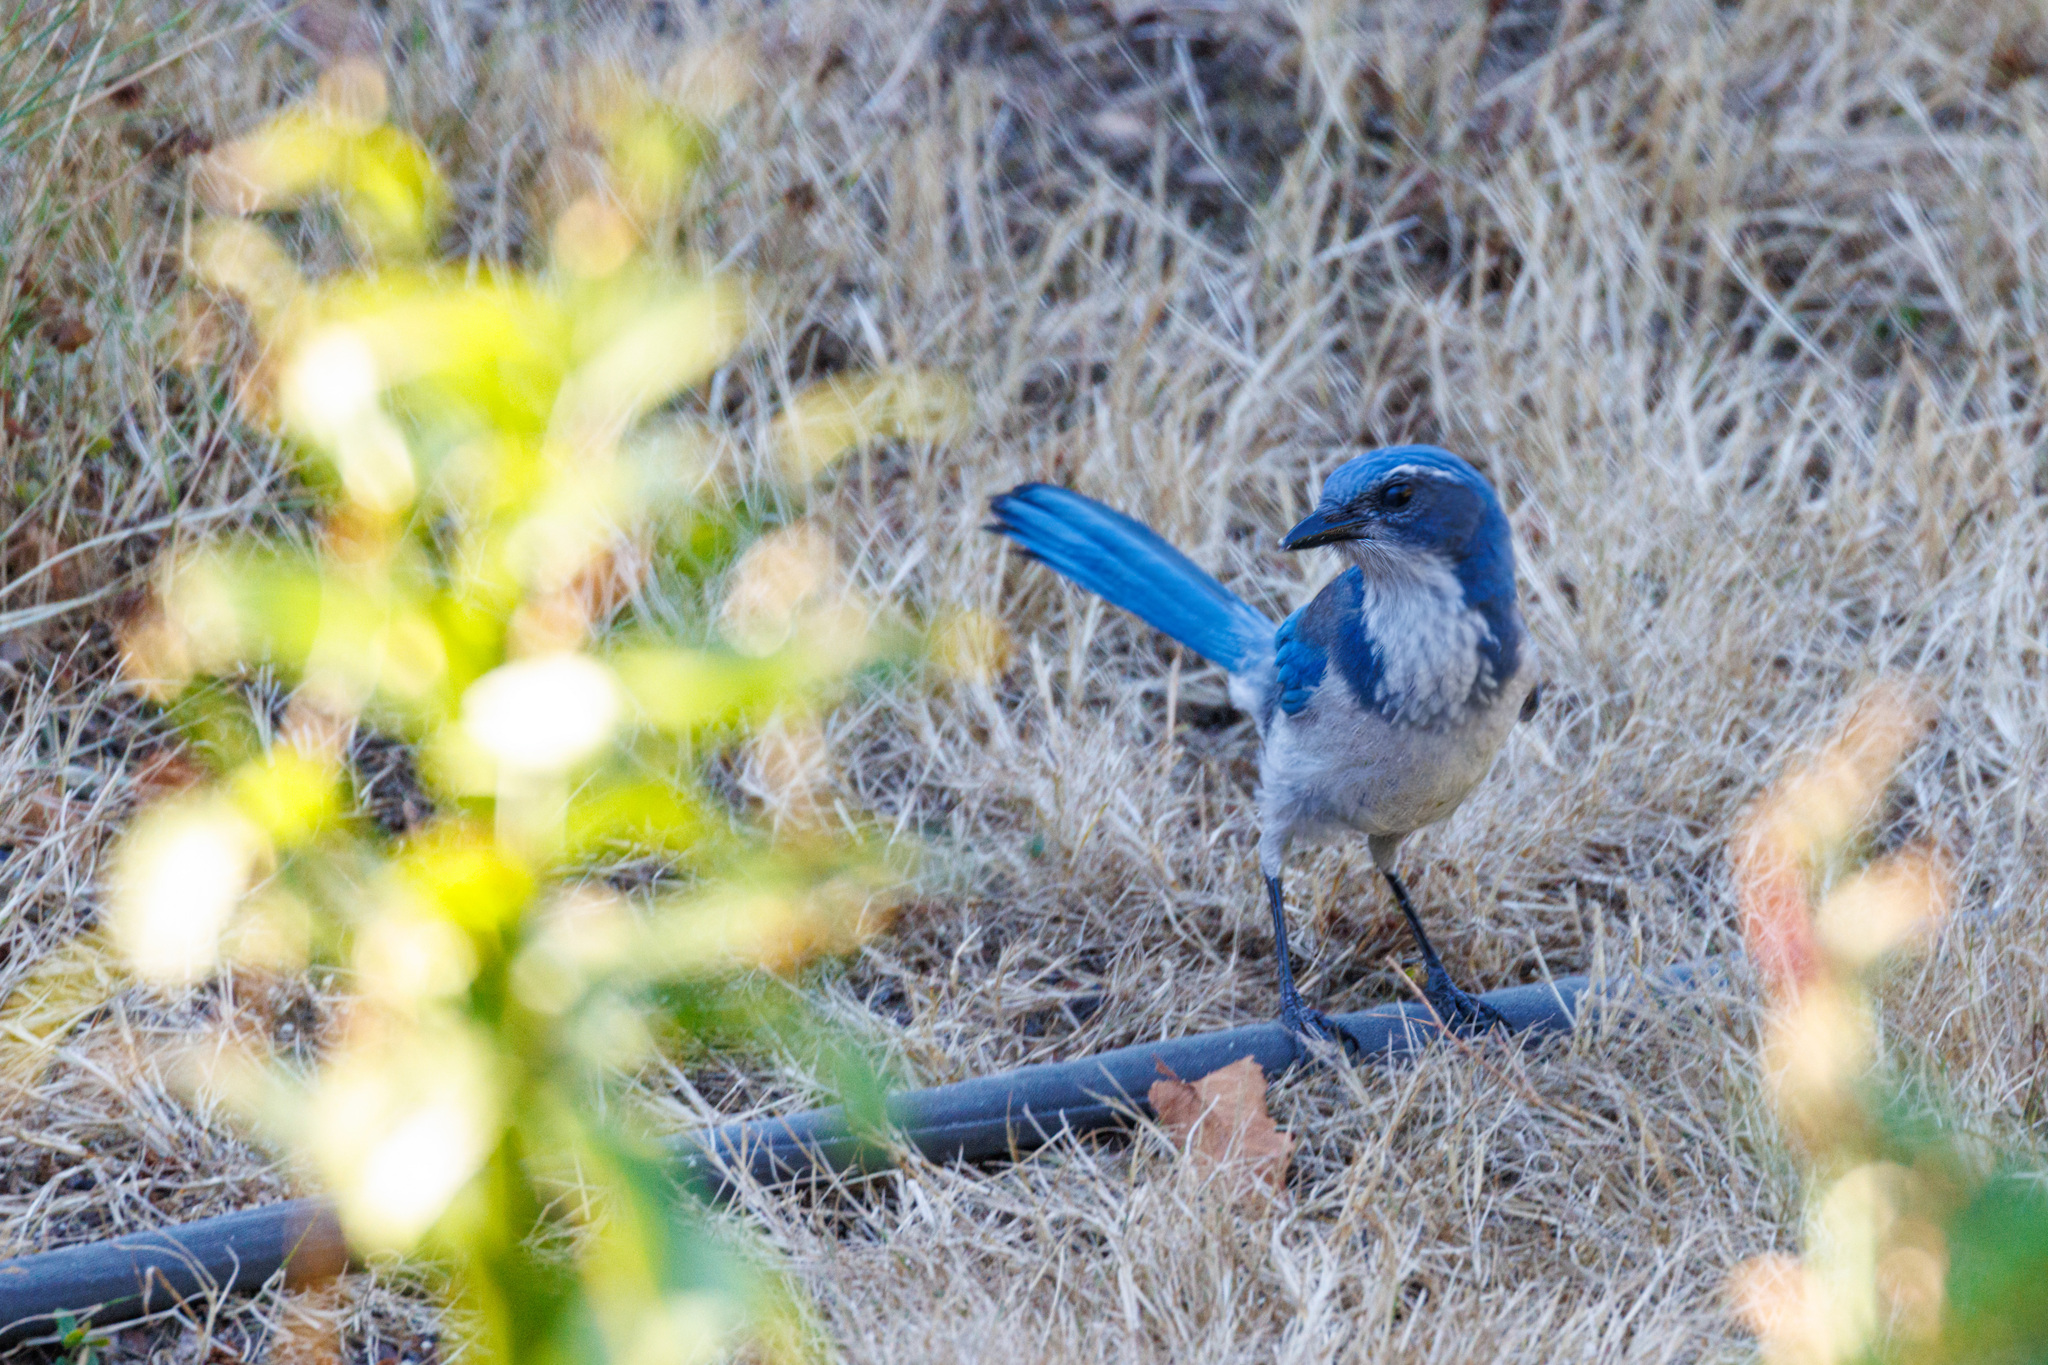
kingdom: Animalia
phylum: Chordata
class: Aves
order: Passeriformes
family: Corvidae
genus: Aphelocoma
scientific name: Aphelocoma californica
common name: California scrub-jay
